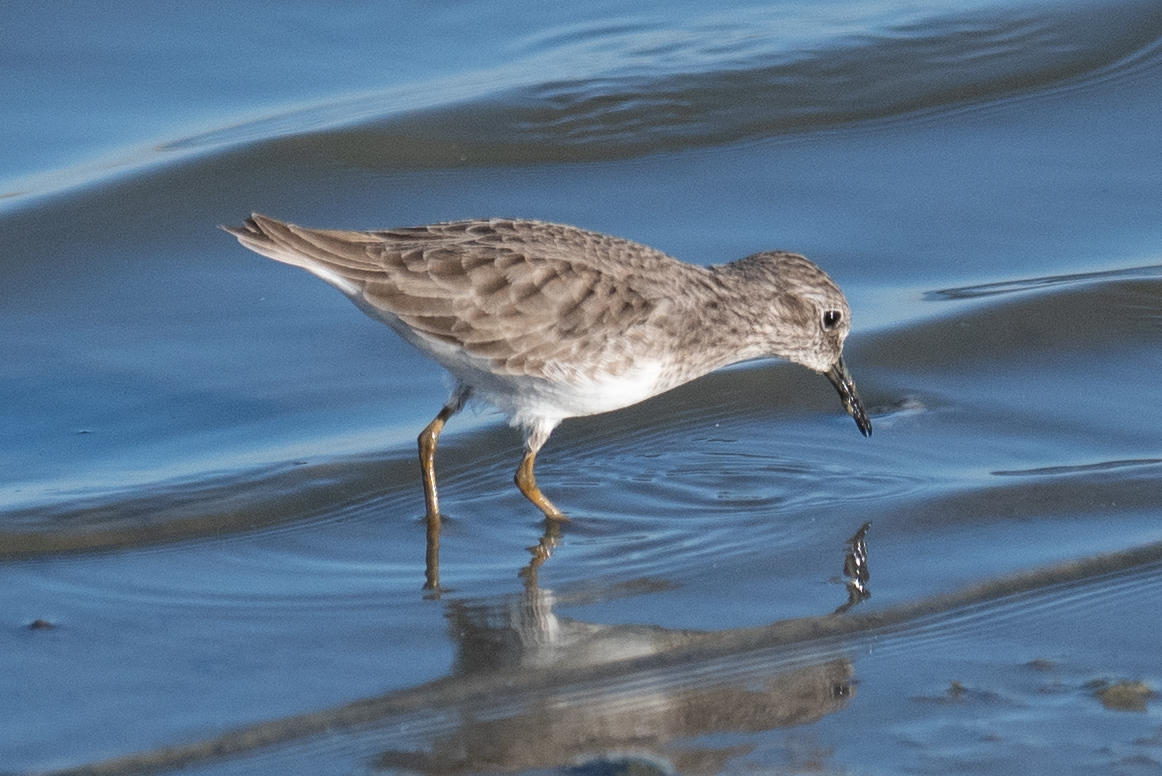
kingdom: Animalia
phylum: Chordata
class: Aves
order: Charadriiformes
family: Scolopacidae
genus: Calidris
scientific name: Calidris minutilla
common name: Least sandpiper
